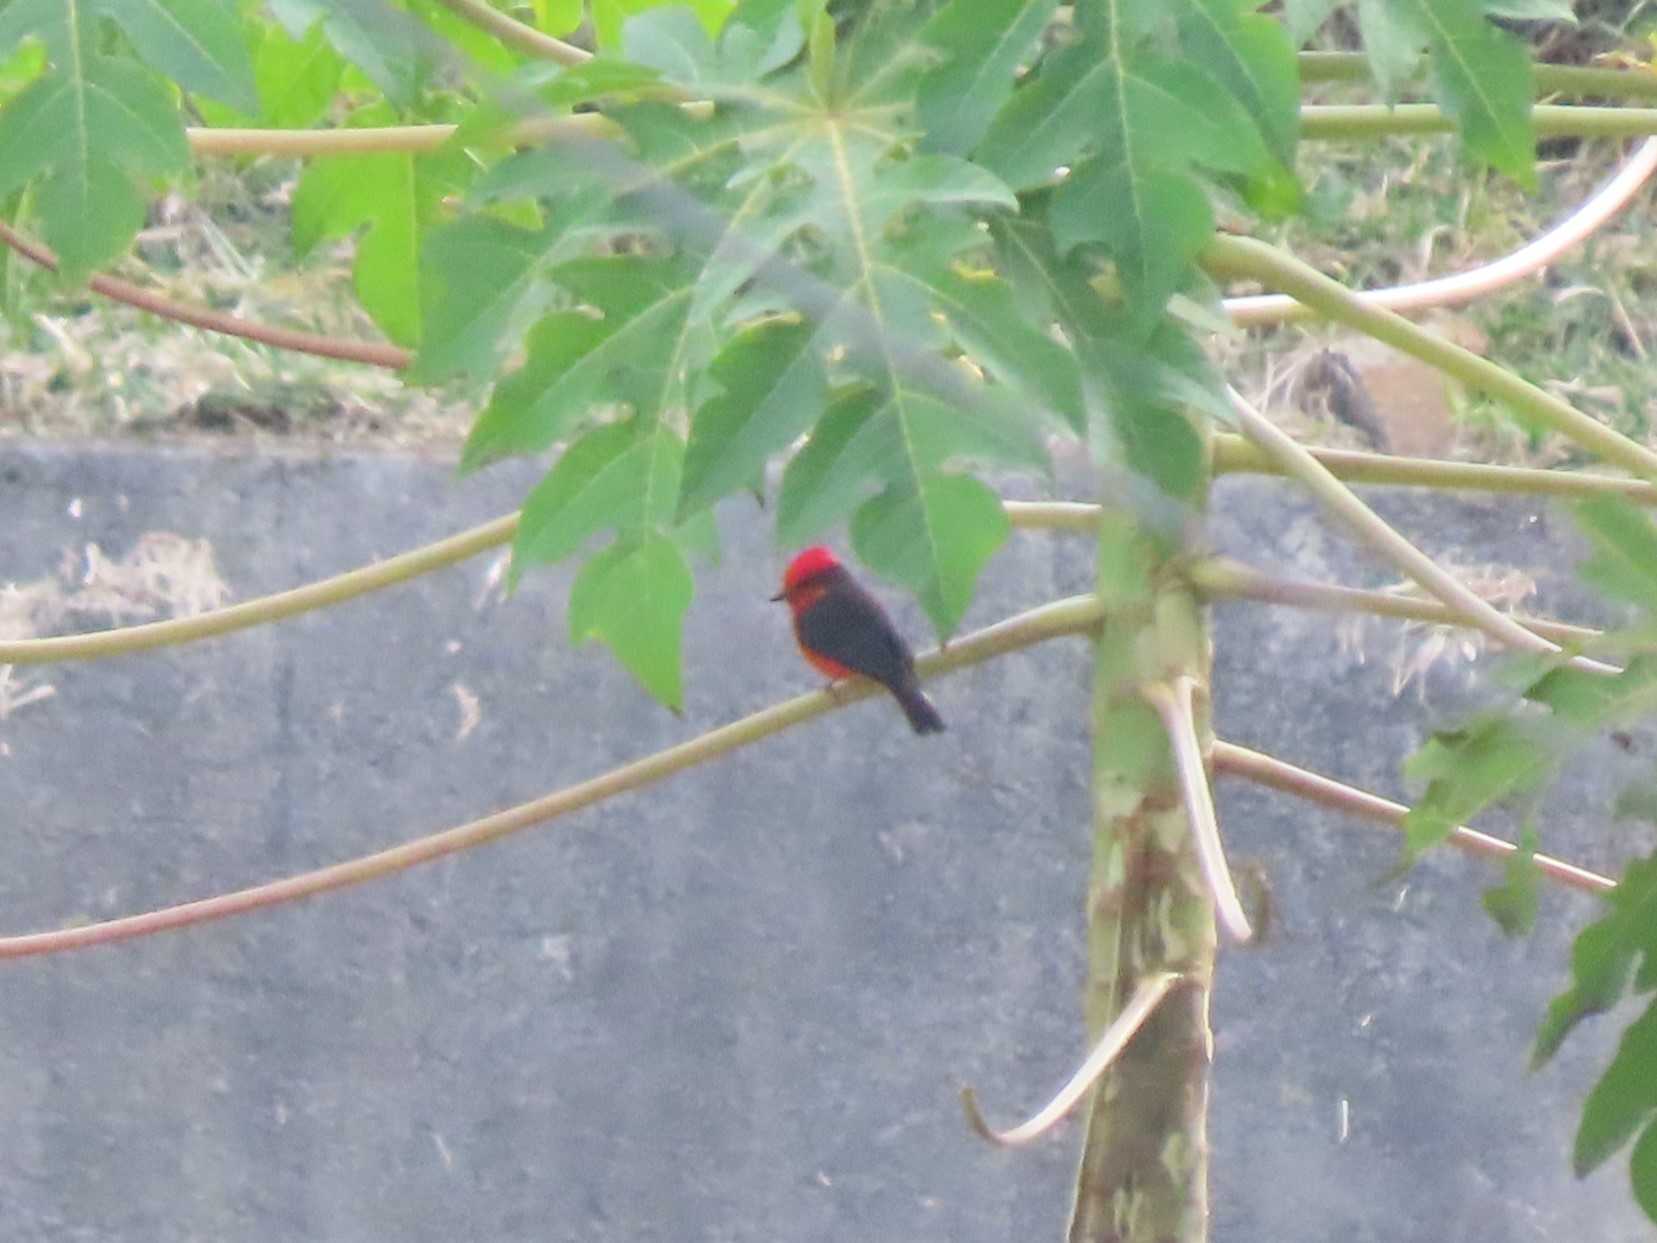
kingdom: Animalia
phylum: Chordata
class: Aves
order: Passeriformes
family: Tyrannidae
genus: Pyrocephalus
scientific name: Pyrocephalus rubinus
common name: Vermilion flycatcher
